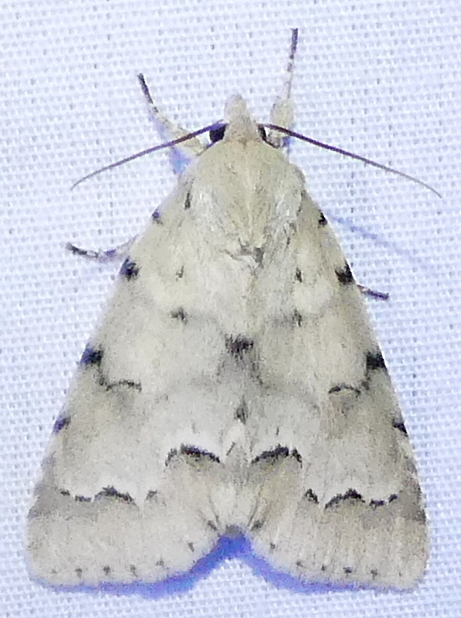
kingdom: Animalia
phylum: Arthropoda
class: Insecta
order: Lepidoptera
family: Noctuidae
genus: Acronicta
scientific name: Acronicta innotata
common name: Unmarked dagger
